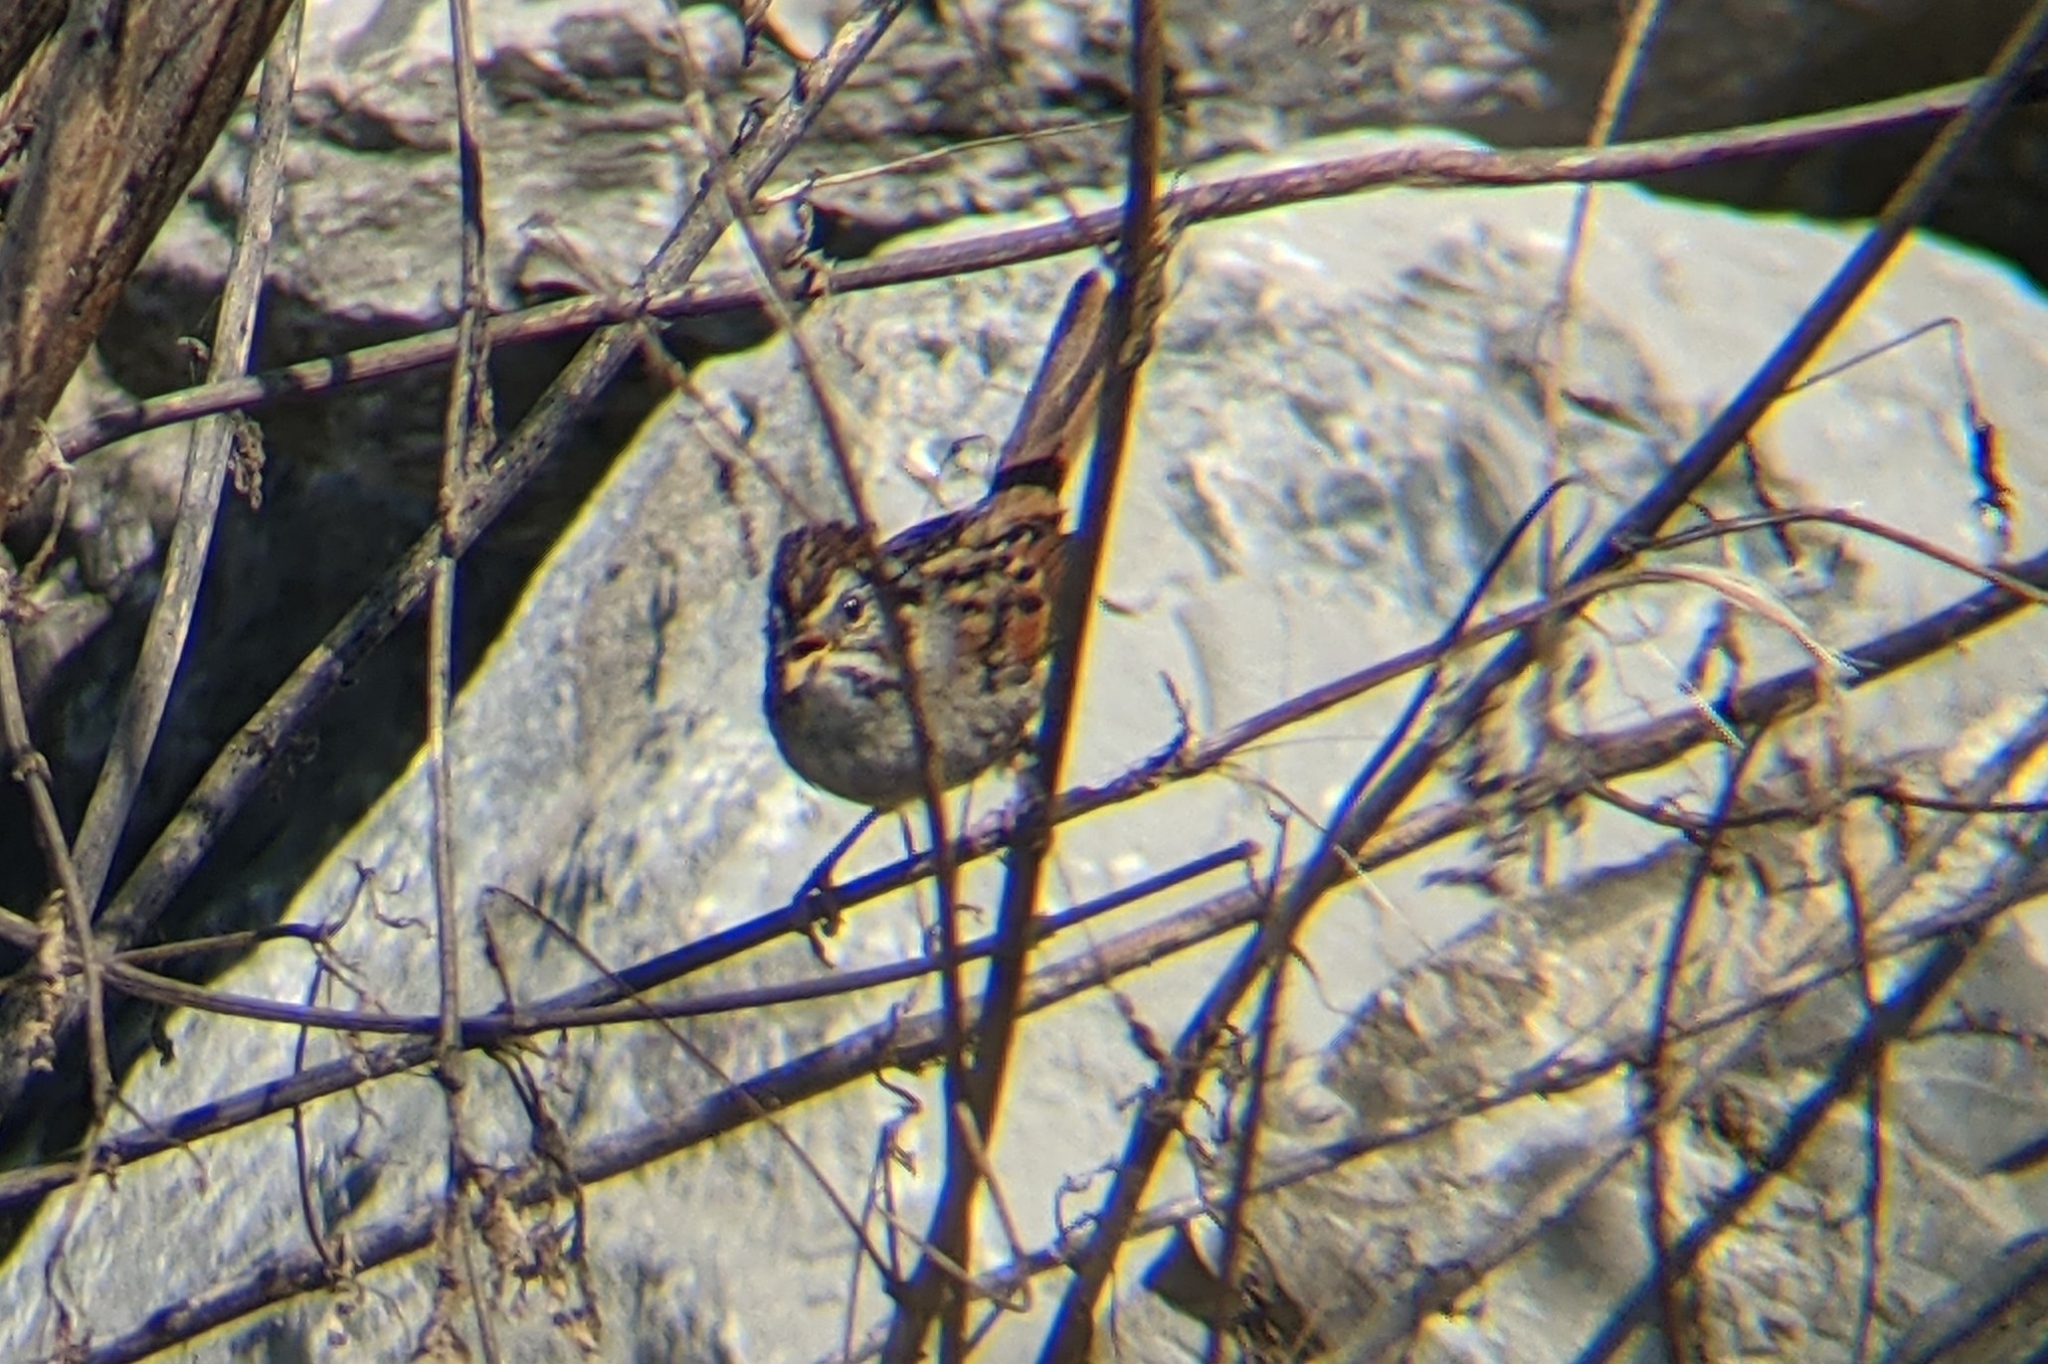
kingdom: Animalia
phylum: Chordata
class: Aves
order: Passeriformes
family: Passerellidae
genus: Melospiza
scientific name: Melospiza georgiana
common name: Swamp sparrow
